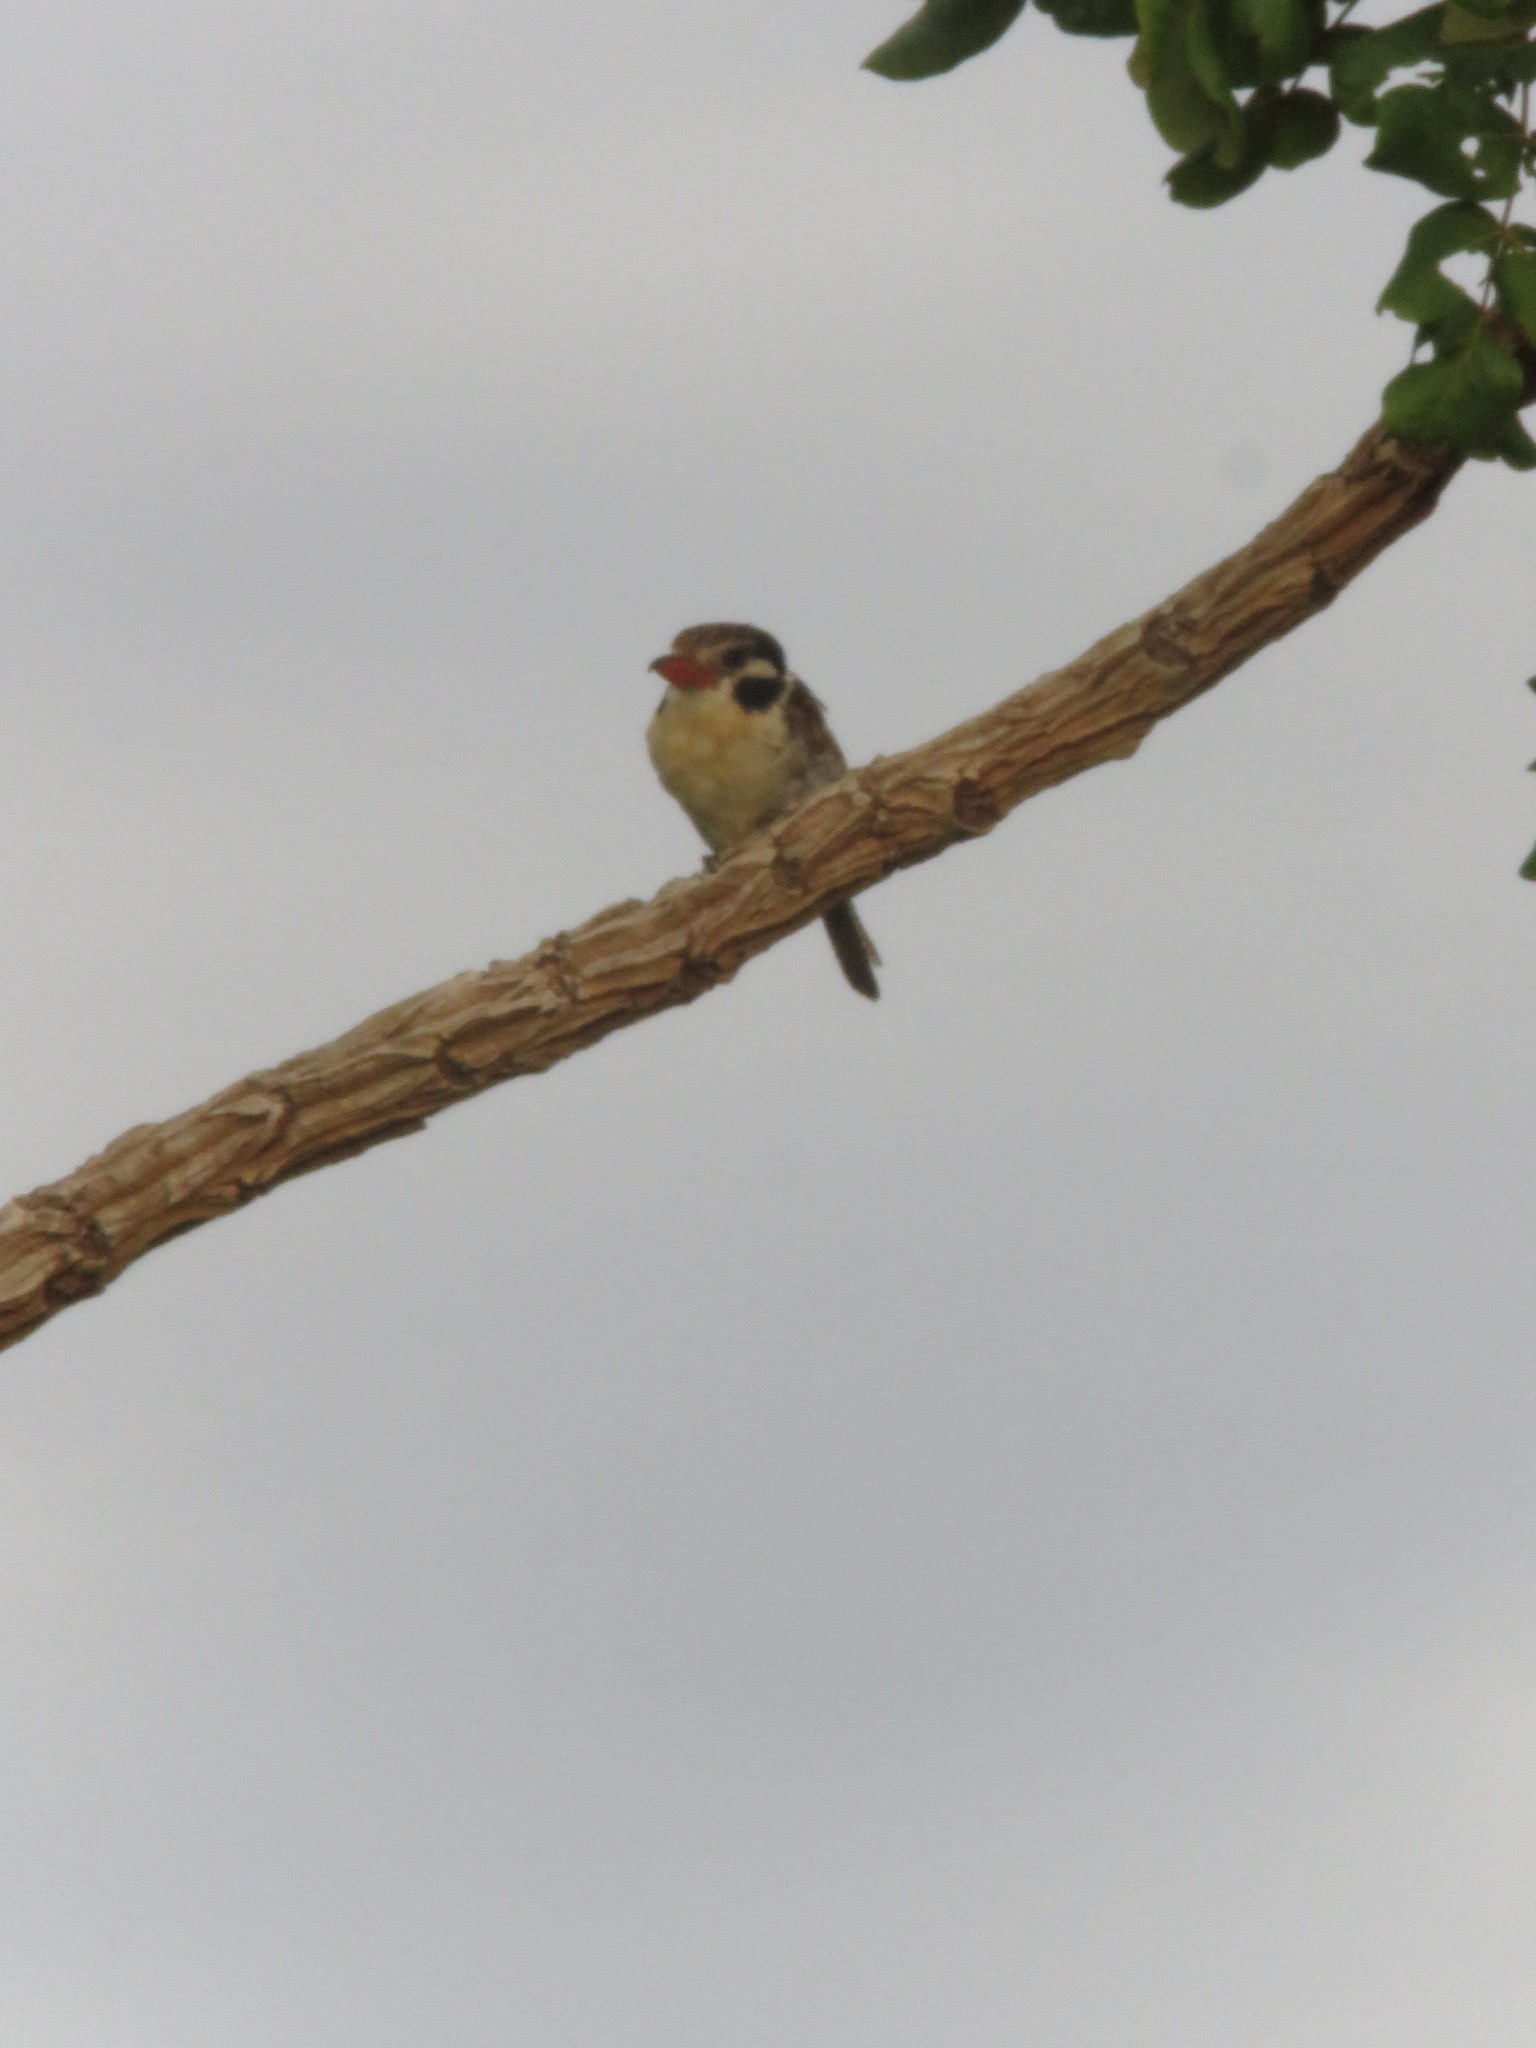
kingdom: Animalia
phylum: Chordata
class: Aves
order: Piciformes
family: Bucconidae
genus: Nystalus
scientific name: Nystalus chacuru
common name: White-eared puffbird
